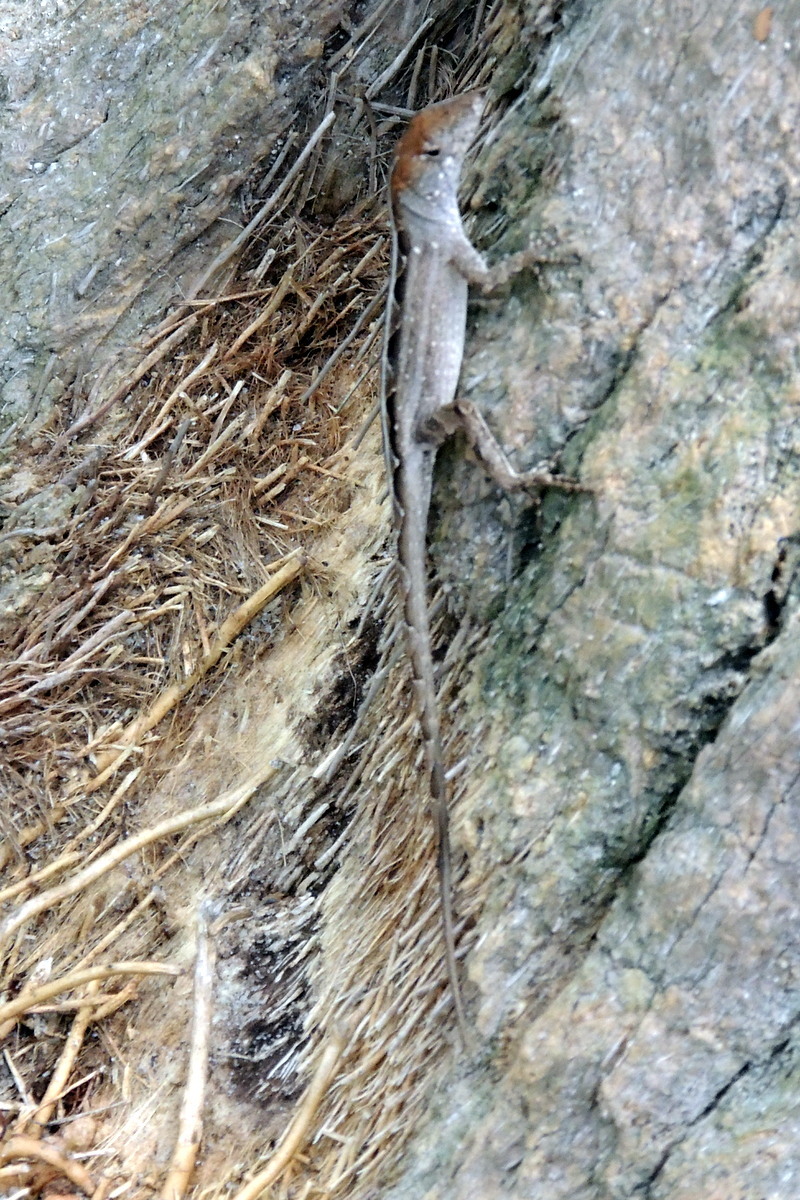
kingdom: Animalia
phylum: Chordata
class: Squamata
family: Dactyloidae
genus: Anolis
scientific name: Anolis sagrei
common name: Brown anole
